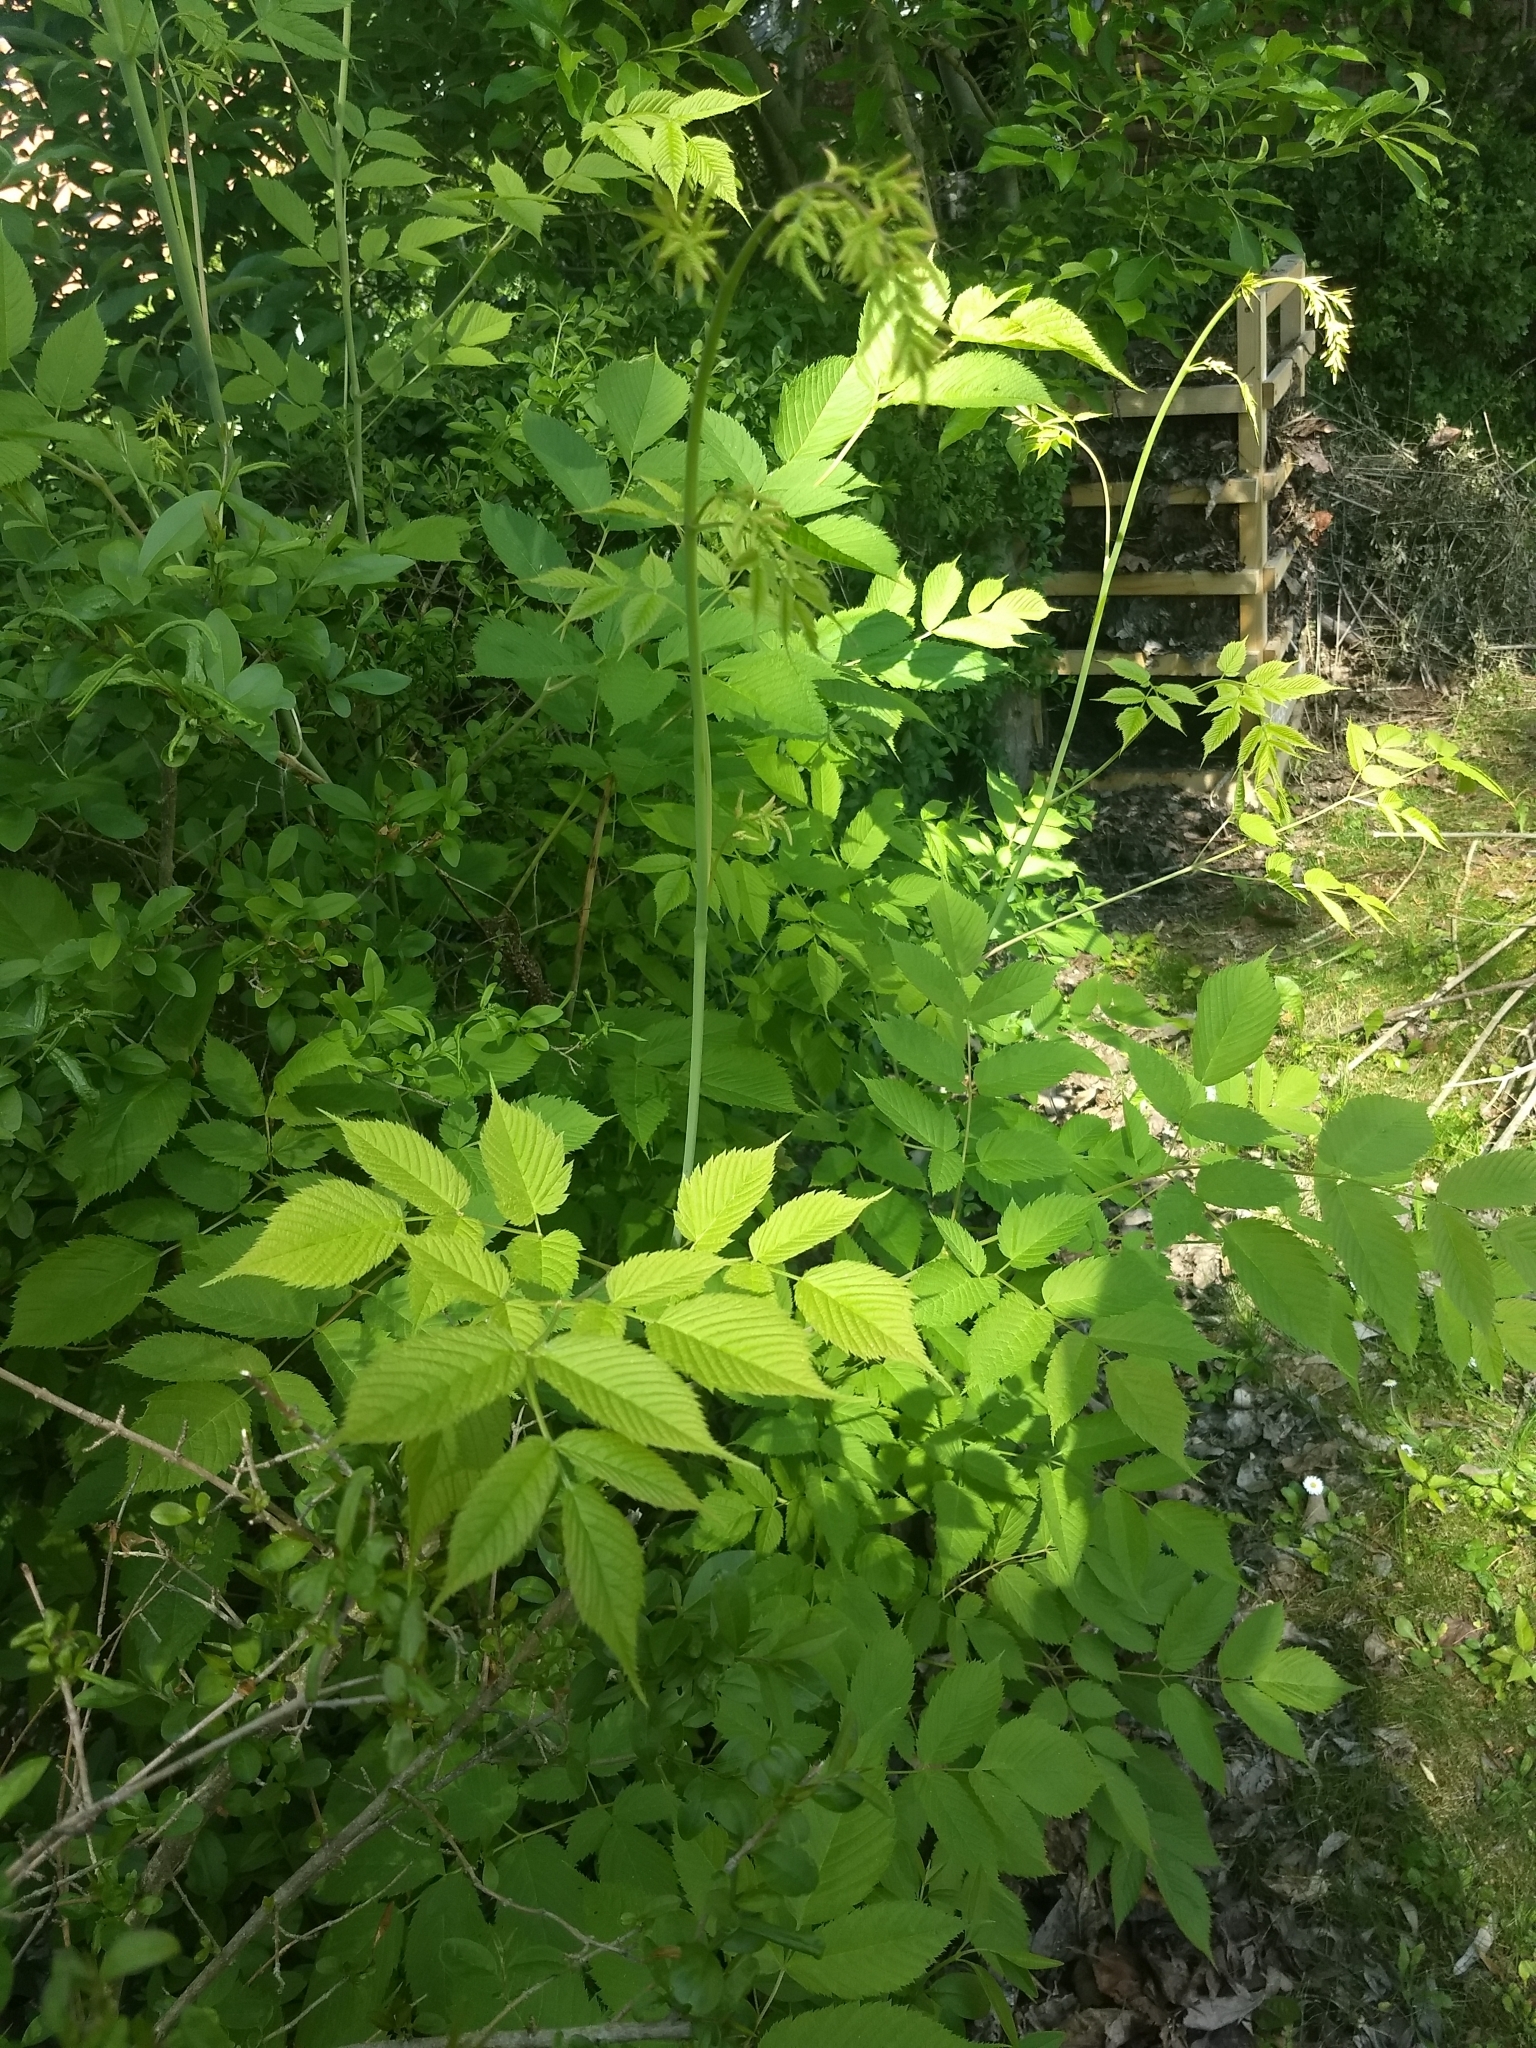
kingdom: Plantae
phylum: Tracheophyta
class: Magnoliopsida
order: Rosales
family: Rosaceae
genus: Aruncus
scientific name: Aruncus dioicus
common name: Buck's-beard
